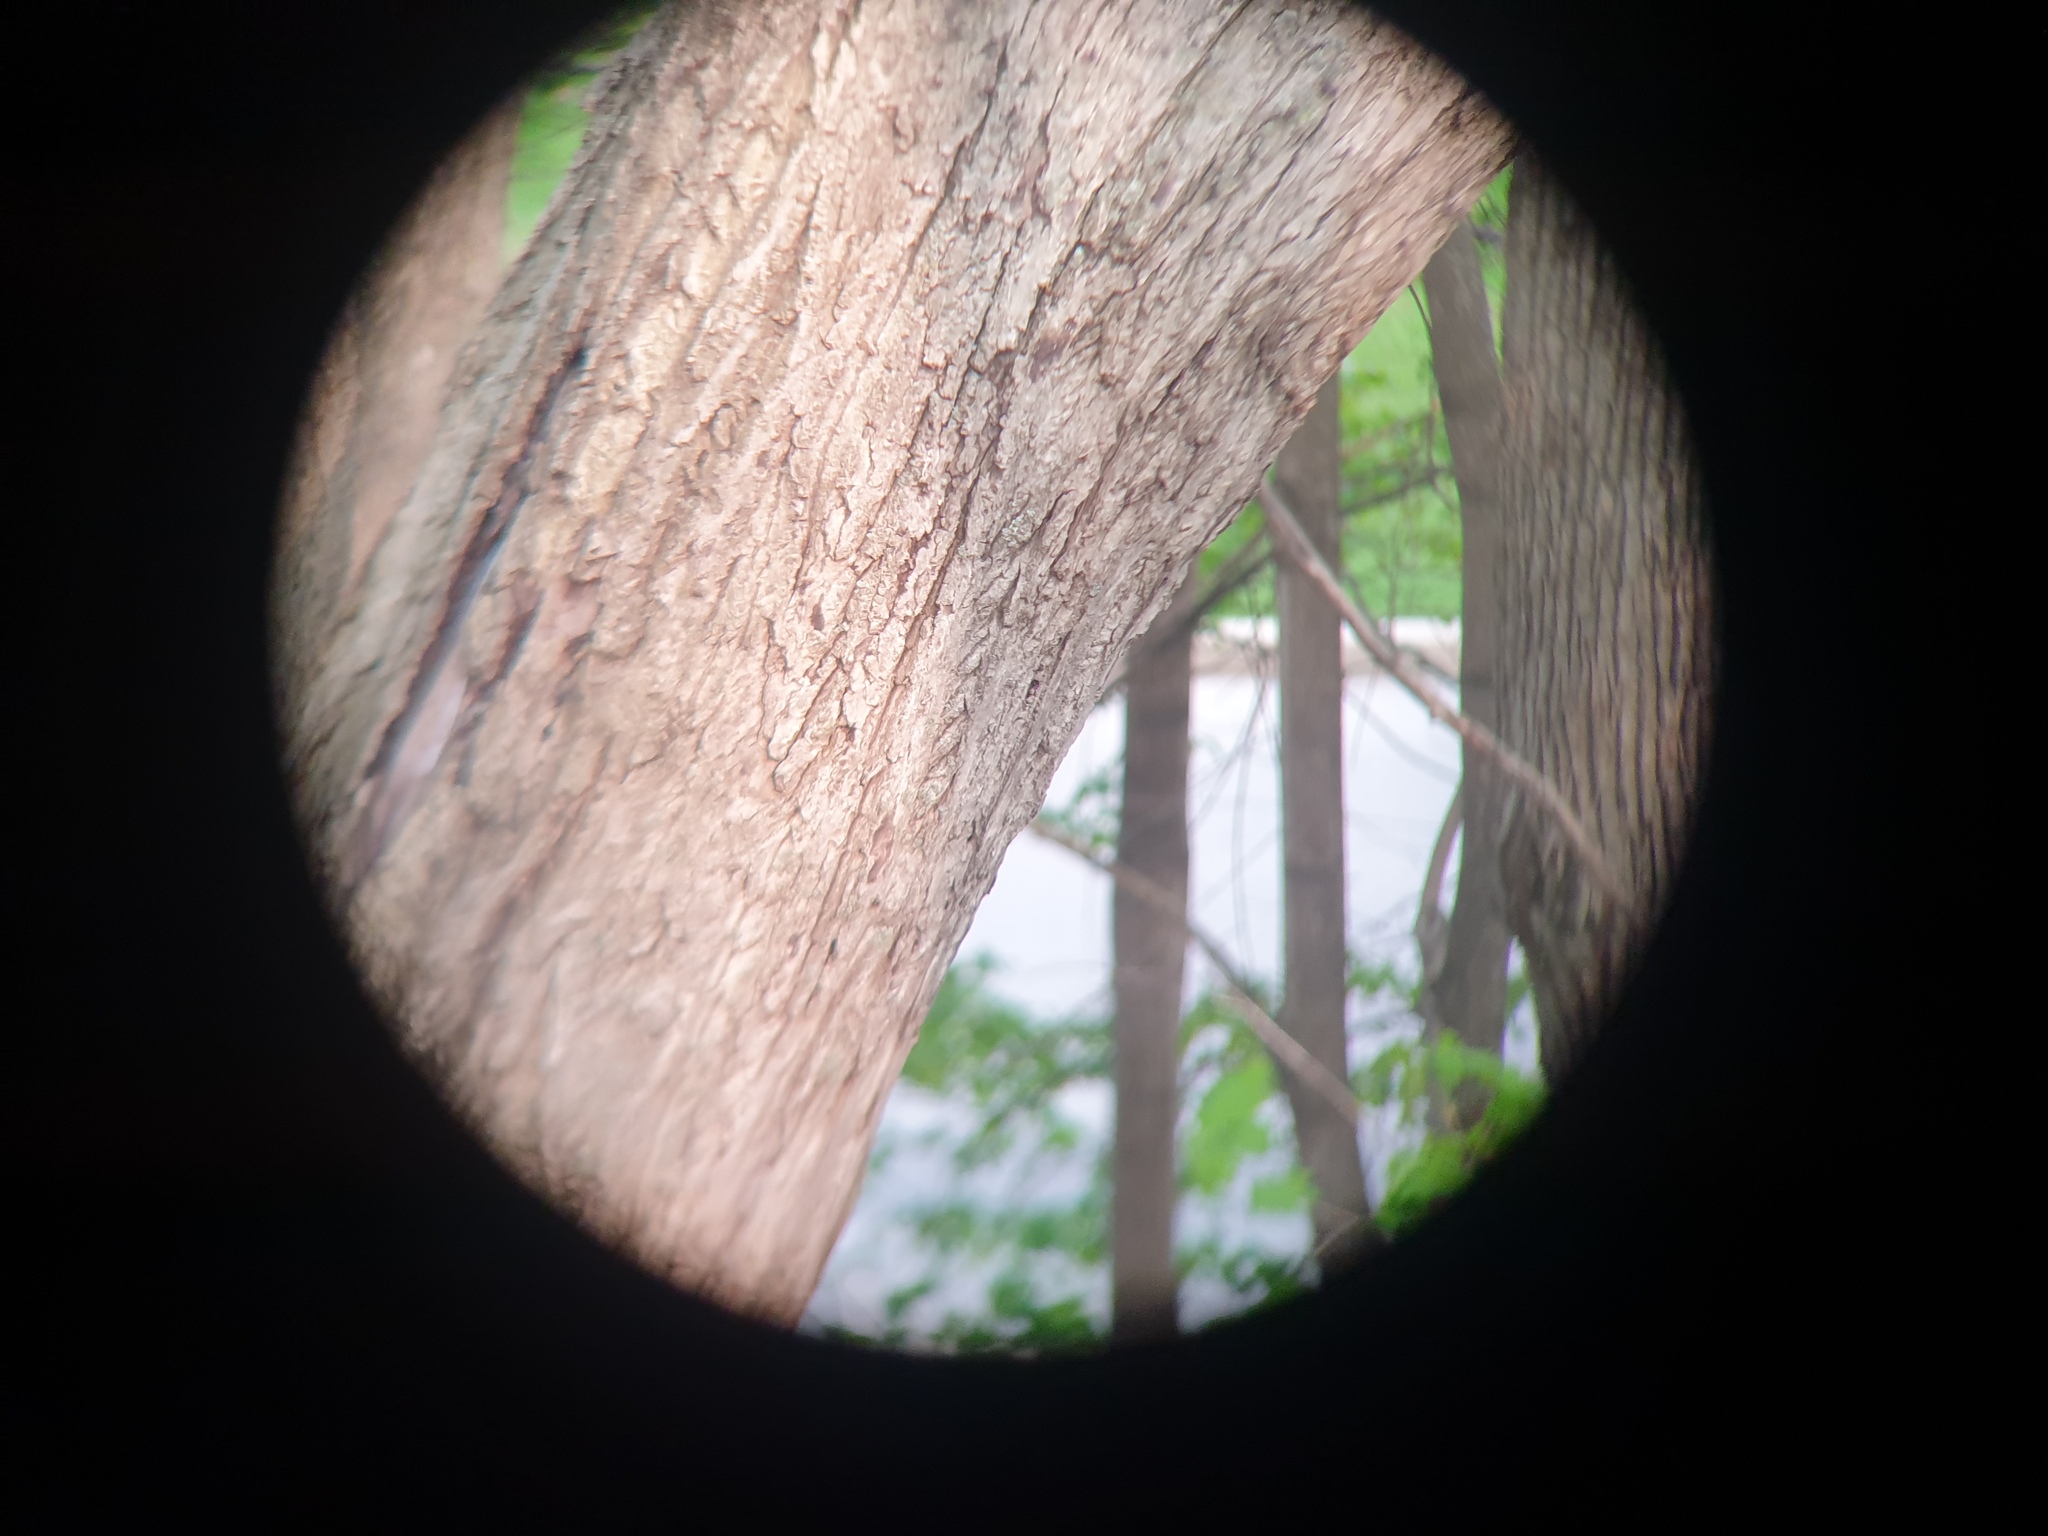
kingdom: Plantae
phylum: Tracheophyta
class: Magnoliopsida
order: Fagales
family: Juglandaceae
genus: Juglans
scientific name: Juglans cinerea
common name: Butternut
